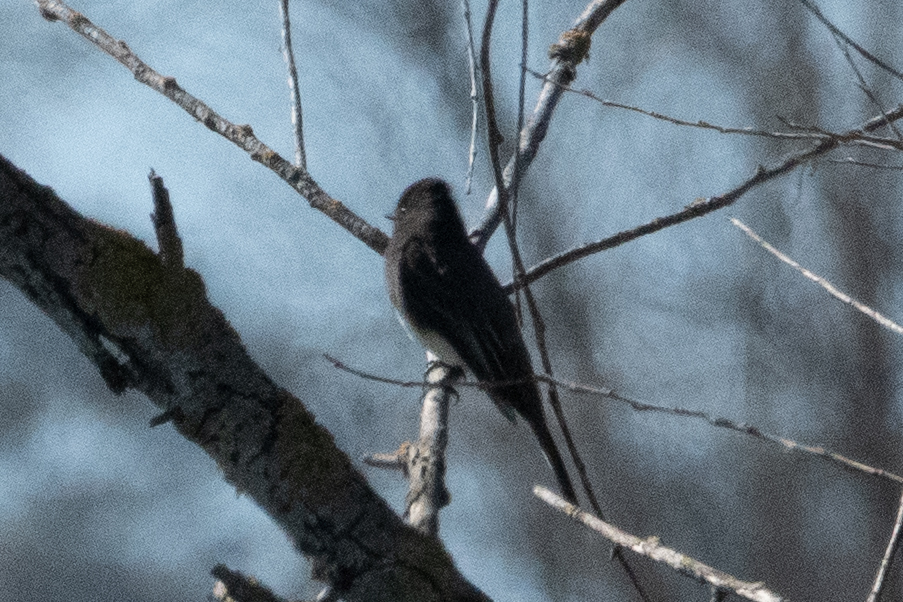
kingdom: Animalia
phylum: Chordata
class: Aves
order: Passeriformes
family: Tyrannidae
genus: Sayornis
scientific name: Sayornis nigricans
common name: Black phoebe
